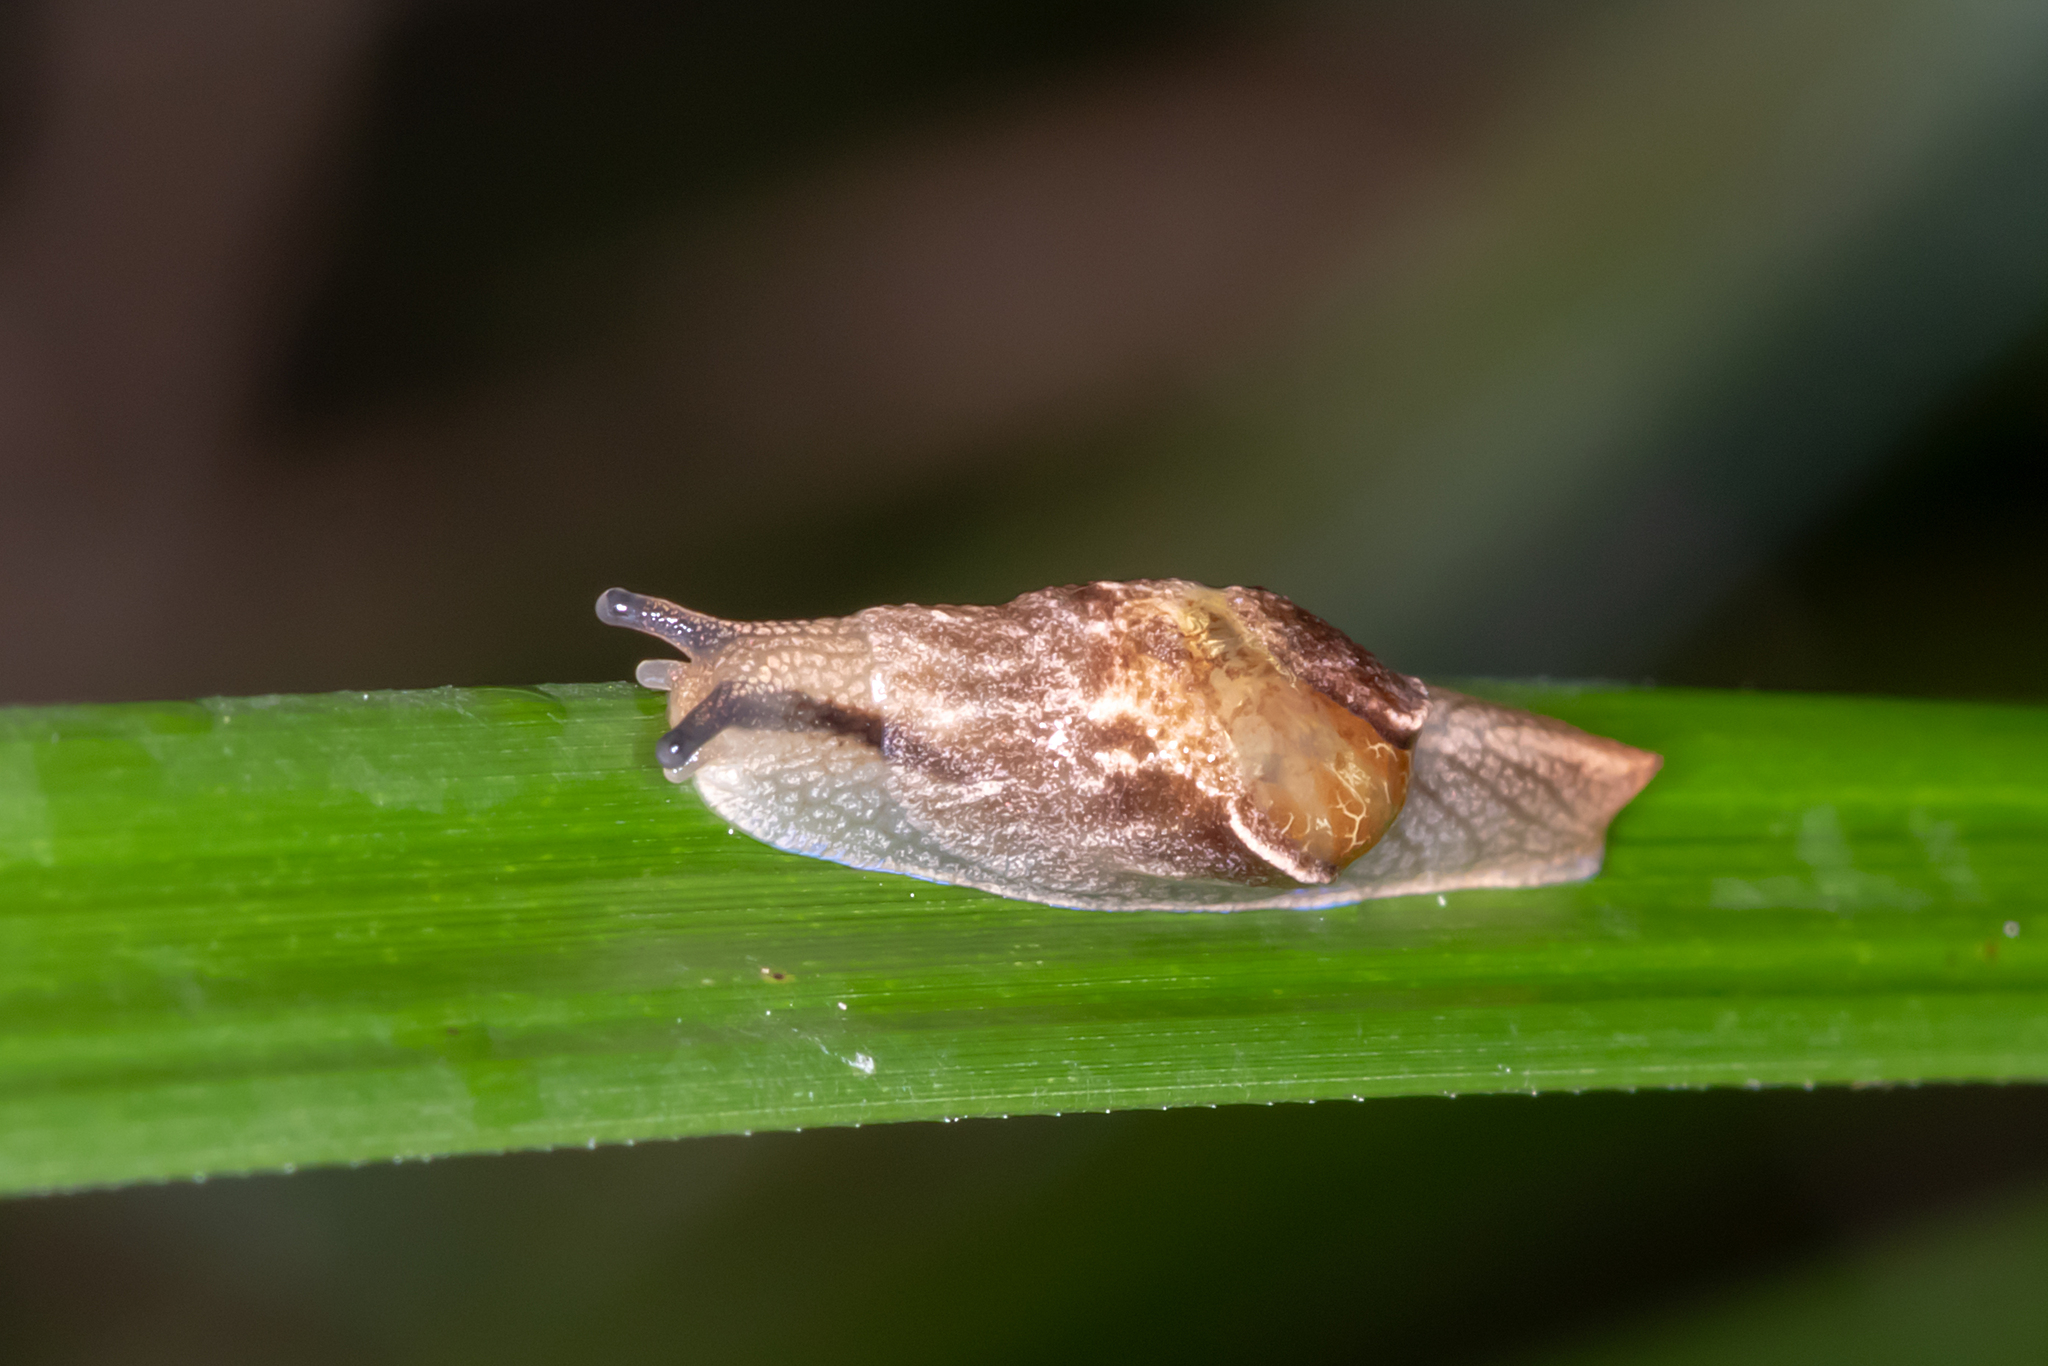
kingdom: Animalia
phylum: Mollusca
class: Gastropoda
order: Stylommatophora
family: Helicarionidae
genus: Ubiquitarion
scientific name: Ubiquitarion iridis
